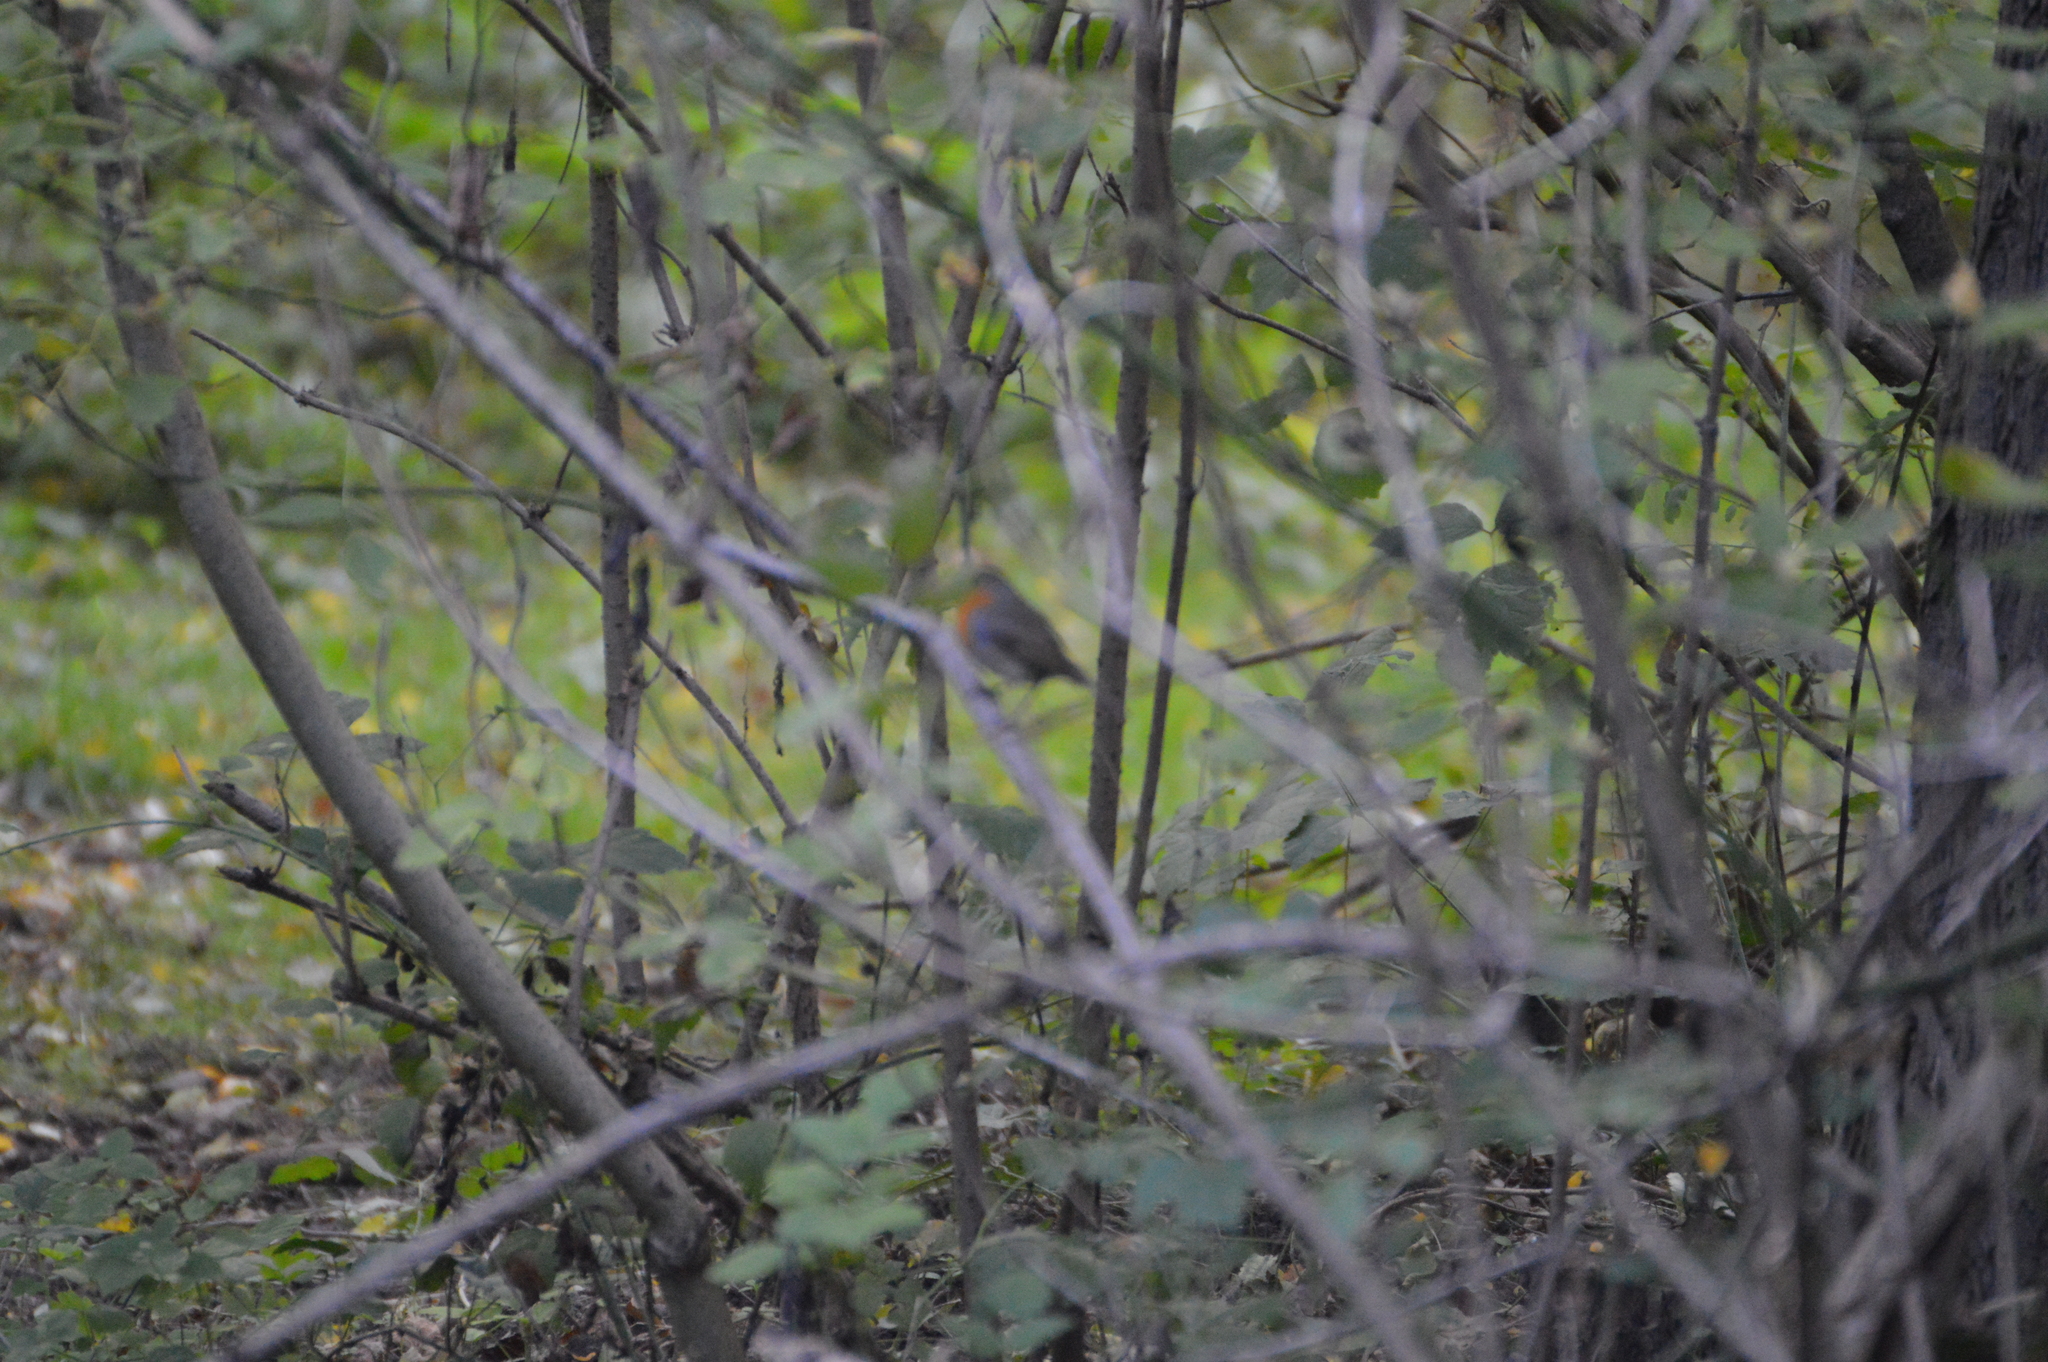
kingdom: Animalia
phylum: Chordata
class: Aves
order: Passeriformes
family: Muscicapidae
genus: Erithacus
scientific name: Erithacus rubecula
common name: European robin
